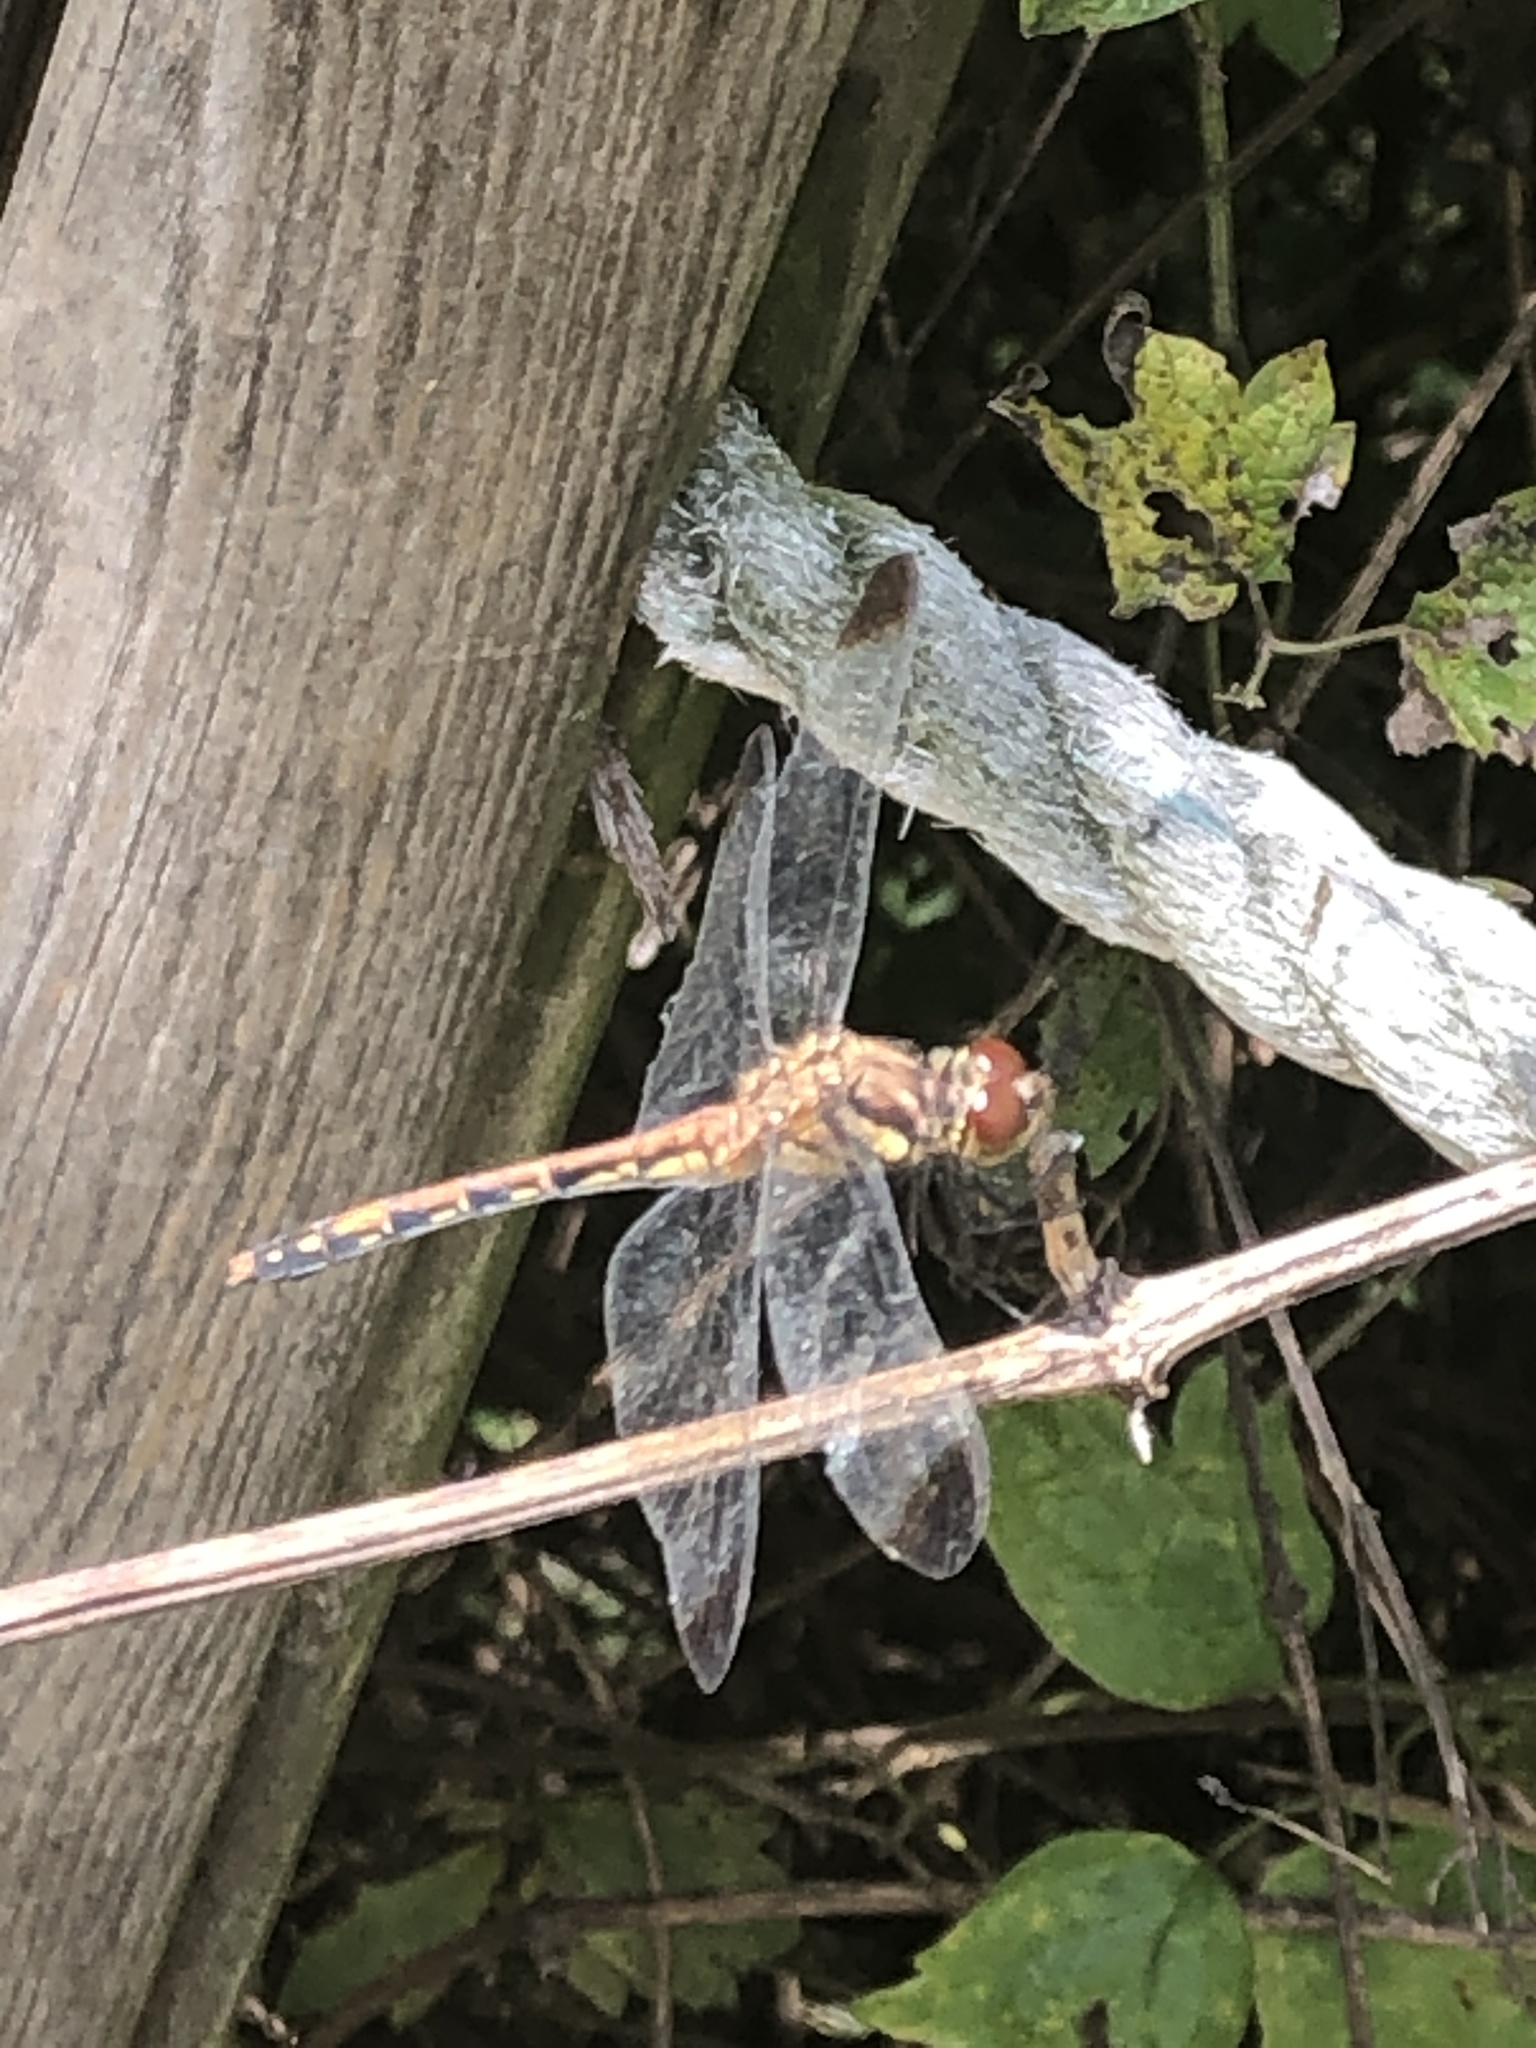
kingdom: Animalia
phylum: Arthropoda
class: Insecta
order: Odonata
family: Libellulidae
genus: Sympetrum
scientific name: Sympetrum infuscatum
